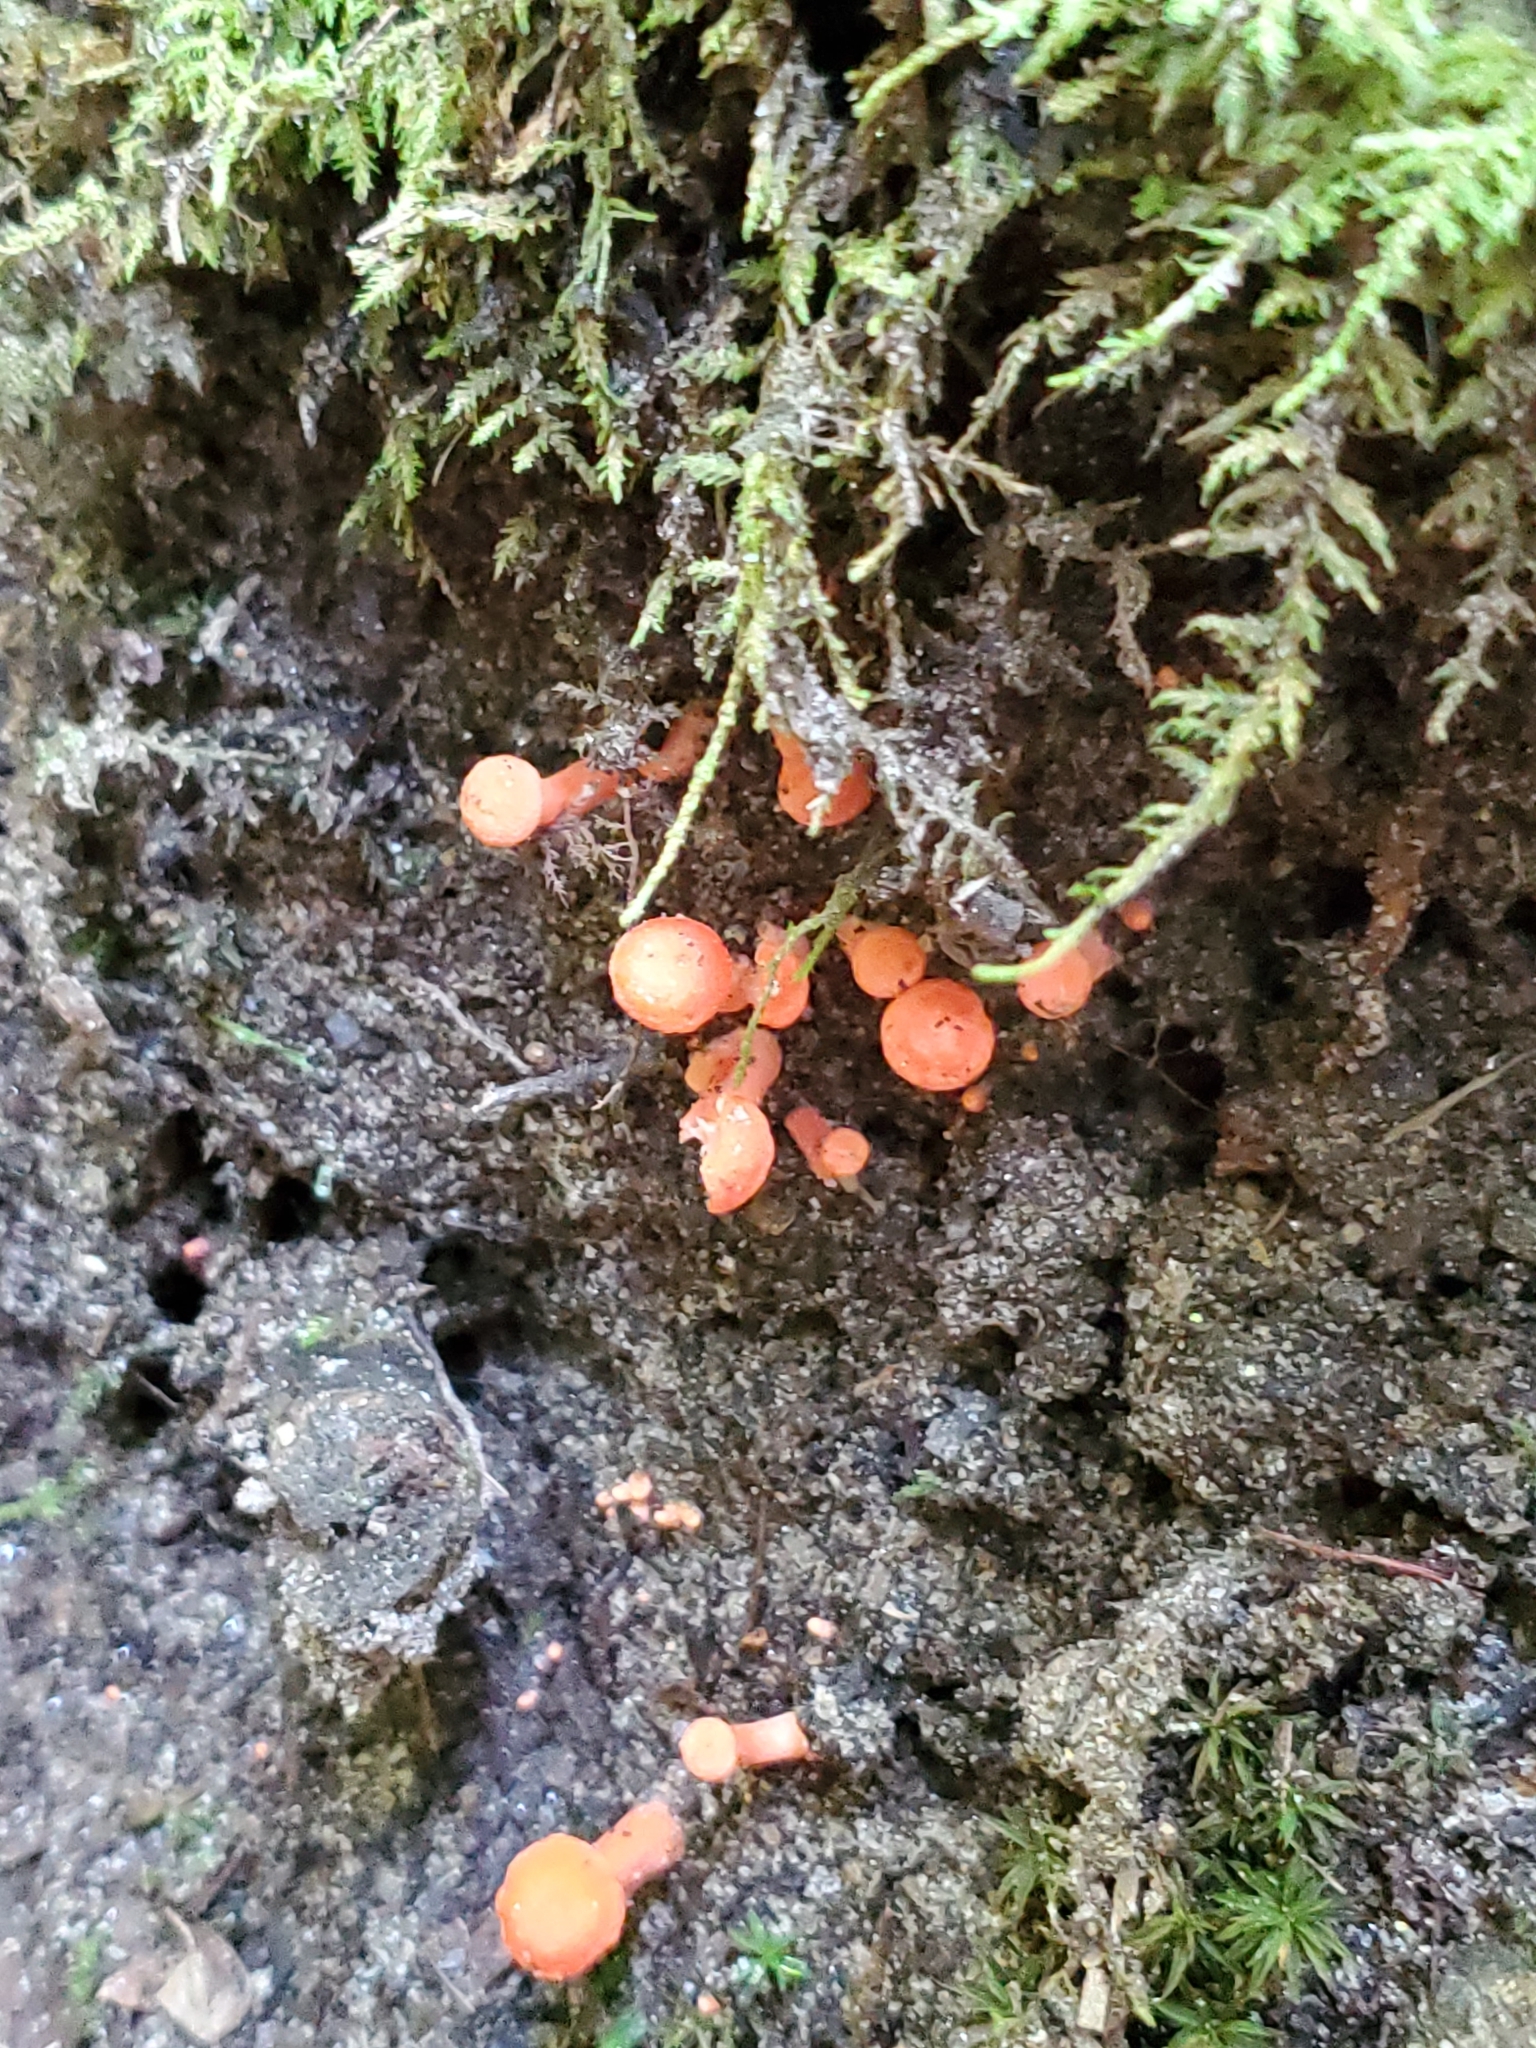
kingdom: Fungi
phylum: Basidiomycota
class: Agaricomycetes
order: Cantharellales
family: Hydnaceae
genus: Cantharellus
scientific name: Cantharellus cinnabarinus
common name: Cinnabar chanterelle
